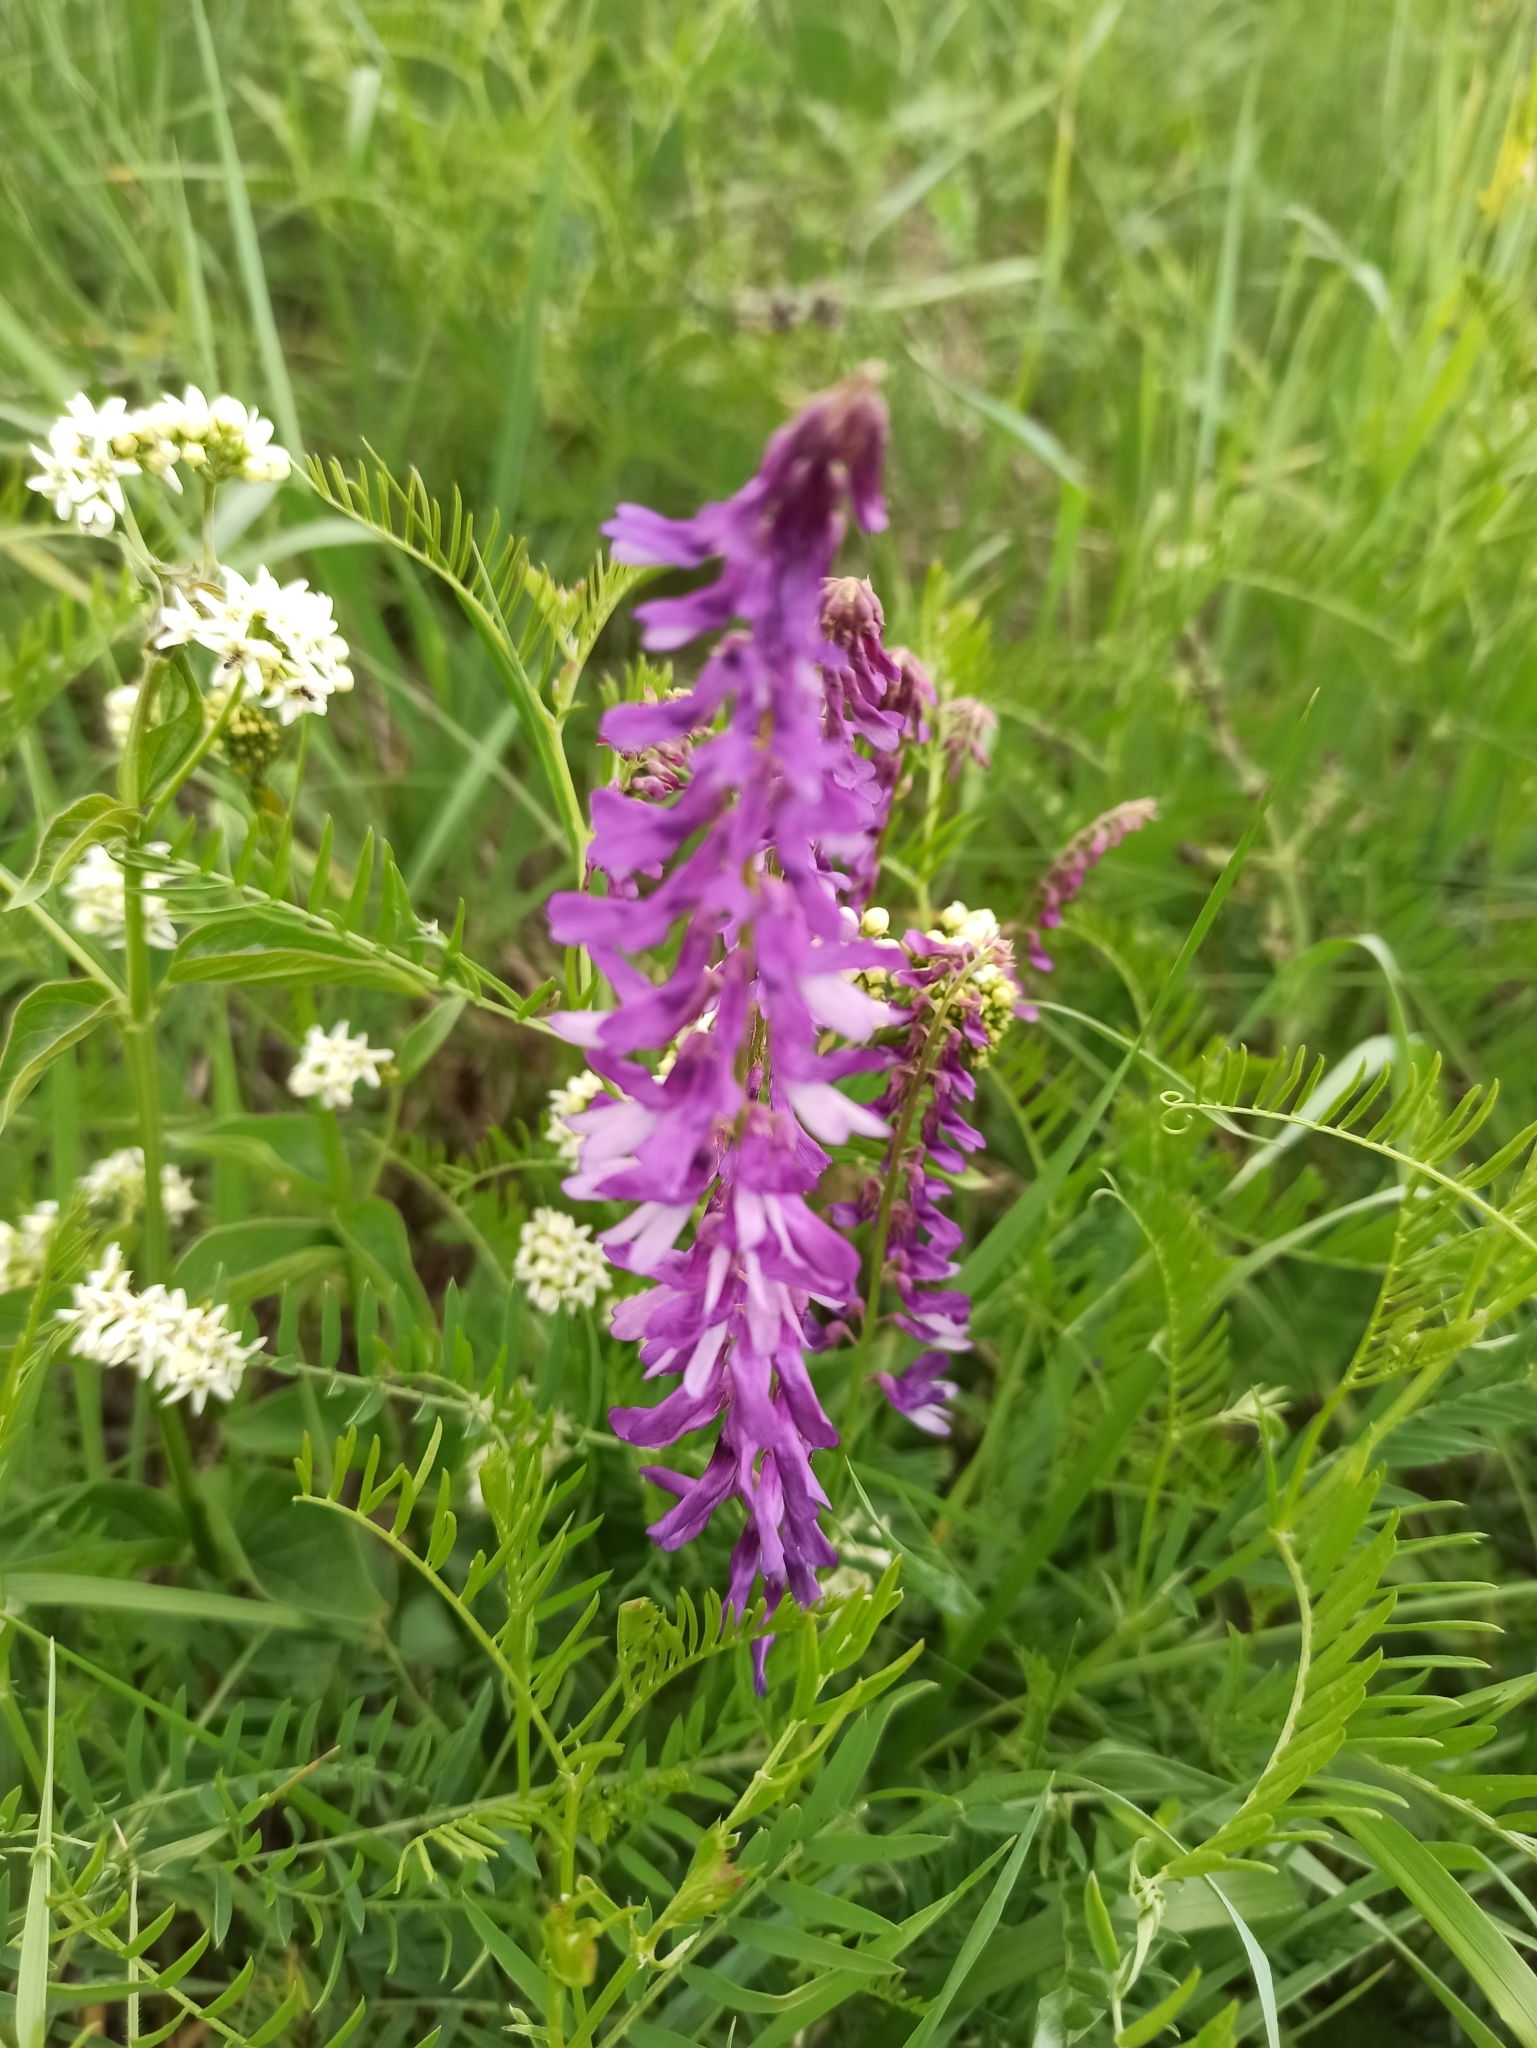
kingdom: Plantae
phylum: Tracheophyta
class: Magnoliopsida
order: Fabales
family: Fabaceae
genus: Vicia
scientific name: Vicia villosa
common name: Fodder vetch
